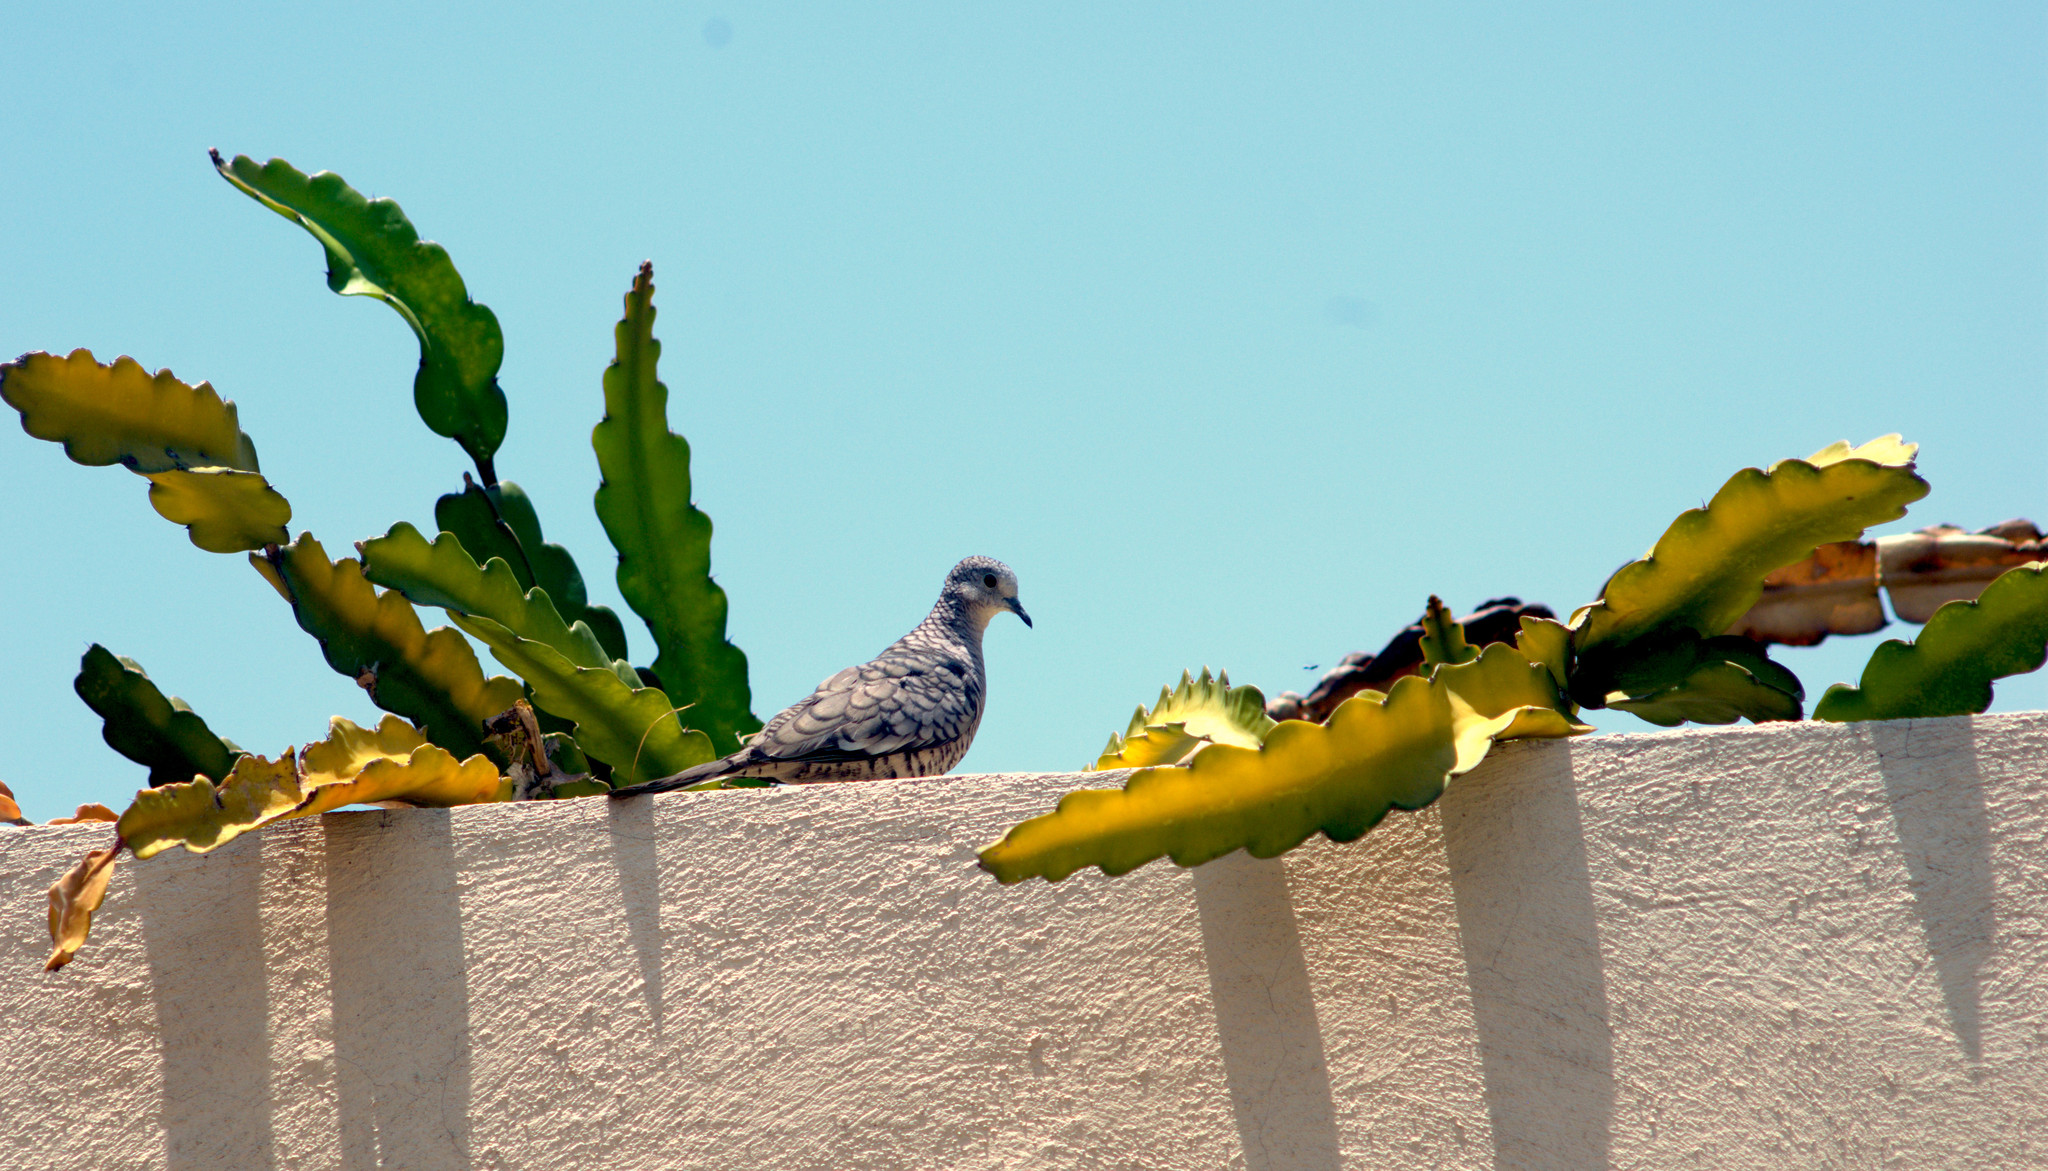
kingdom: Animalia
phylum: Chordata
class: Aves
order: Columbiformes
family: Columbidae
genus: Columbina
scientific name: Columbina inca
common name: Inca dove
